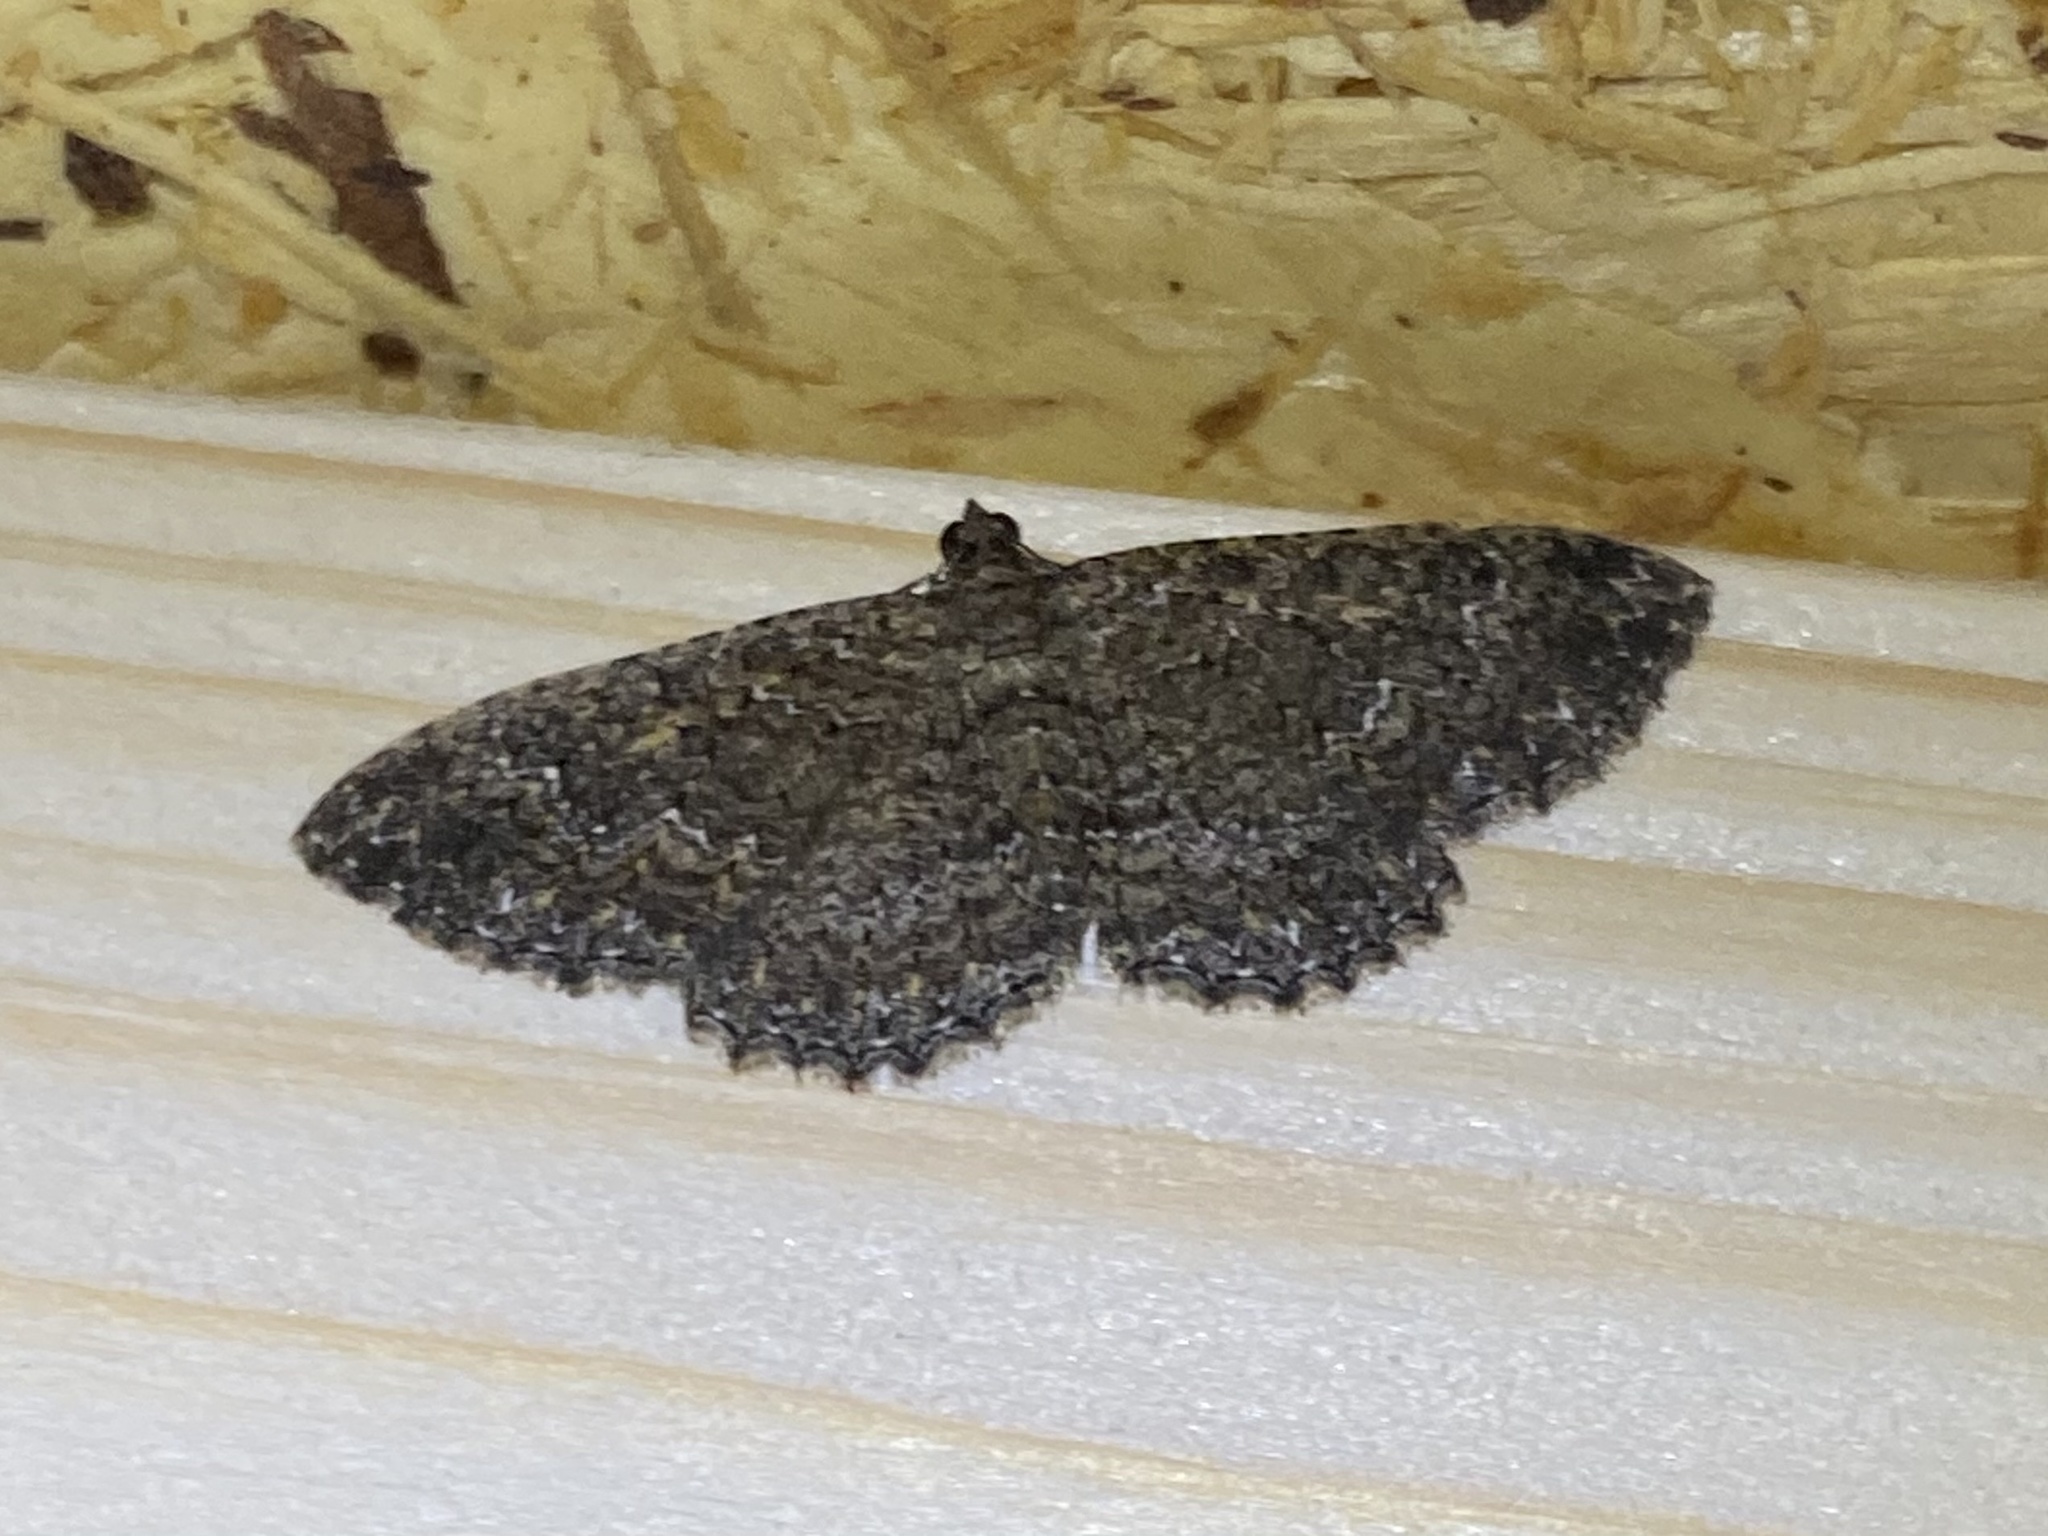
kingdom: Animalia
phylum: Arthropoda
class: Insecta
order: Lepidoptera
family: Geometridae
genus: Disclisioprocta
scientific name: Disclisioprocta stellata
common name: Somber carpet
